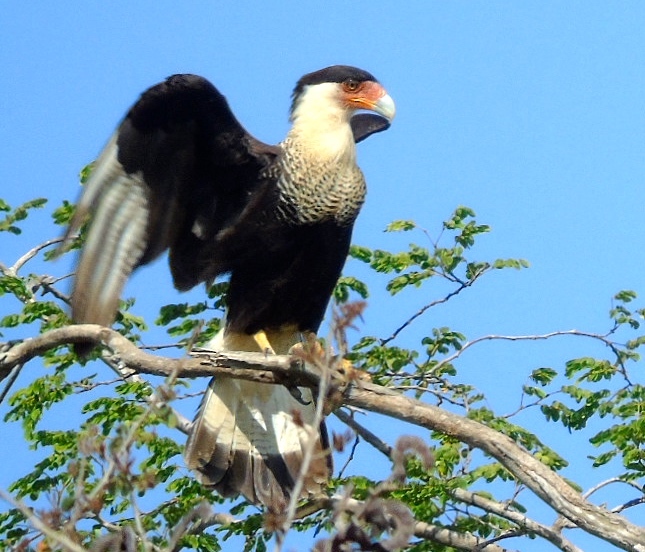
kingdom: Animalia
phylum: Chordata
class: Aves
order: Falconiformes
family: Falconidae
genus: Caracara
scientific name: Caracara plancus
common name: Southern caracara
